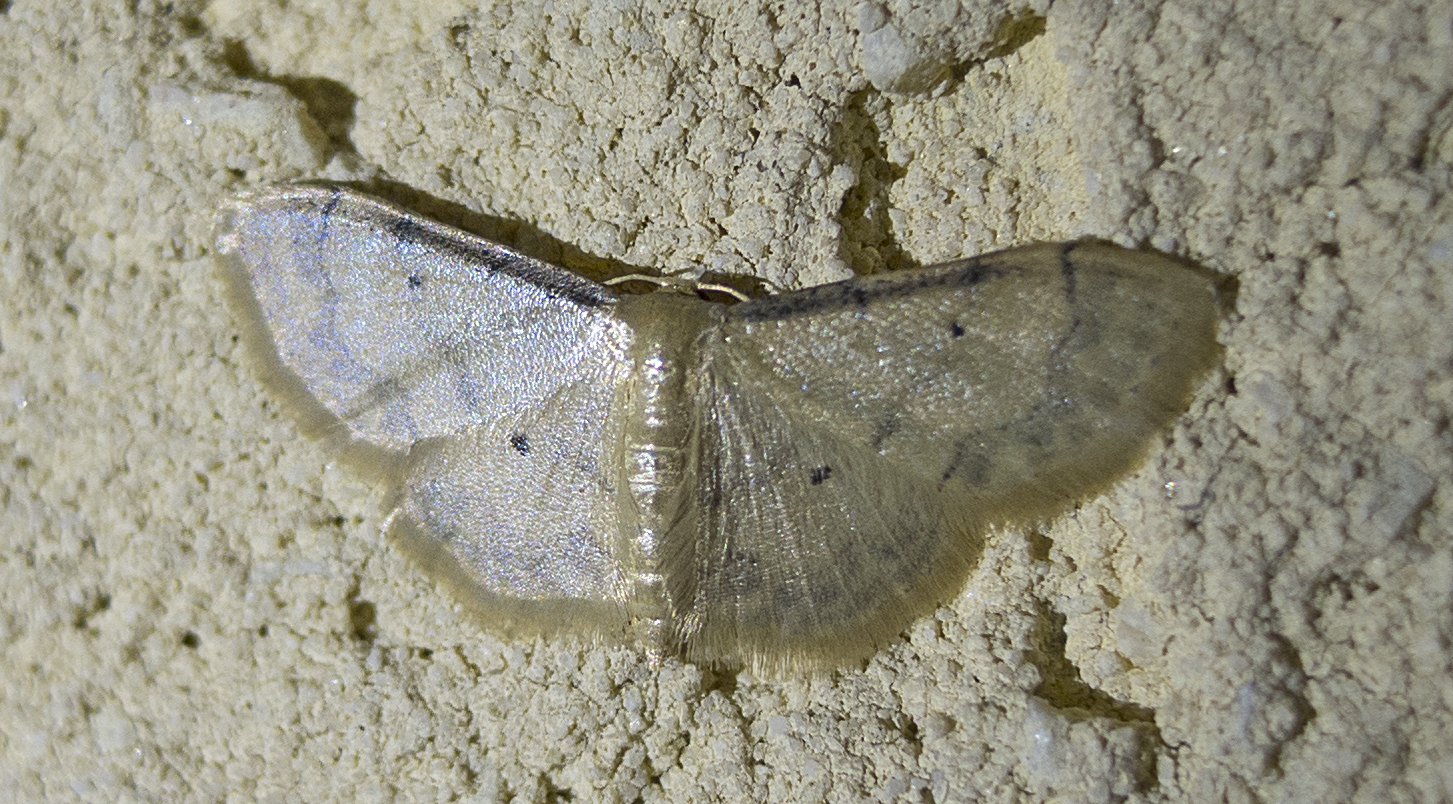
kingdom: Animalia
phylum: Arthropoda
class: Insecta
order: Lepidoptera
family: Geometridae
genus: Idaea
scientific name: Idaea politaria
